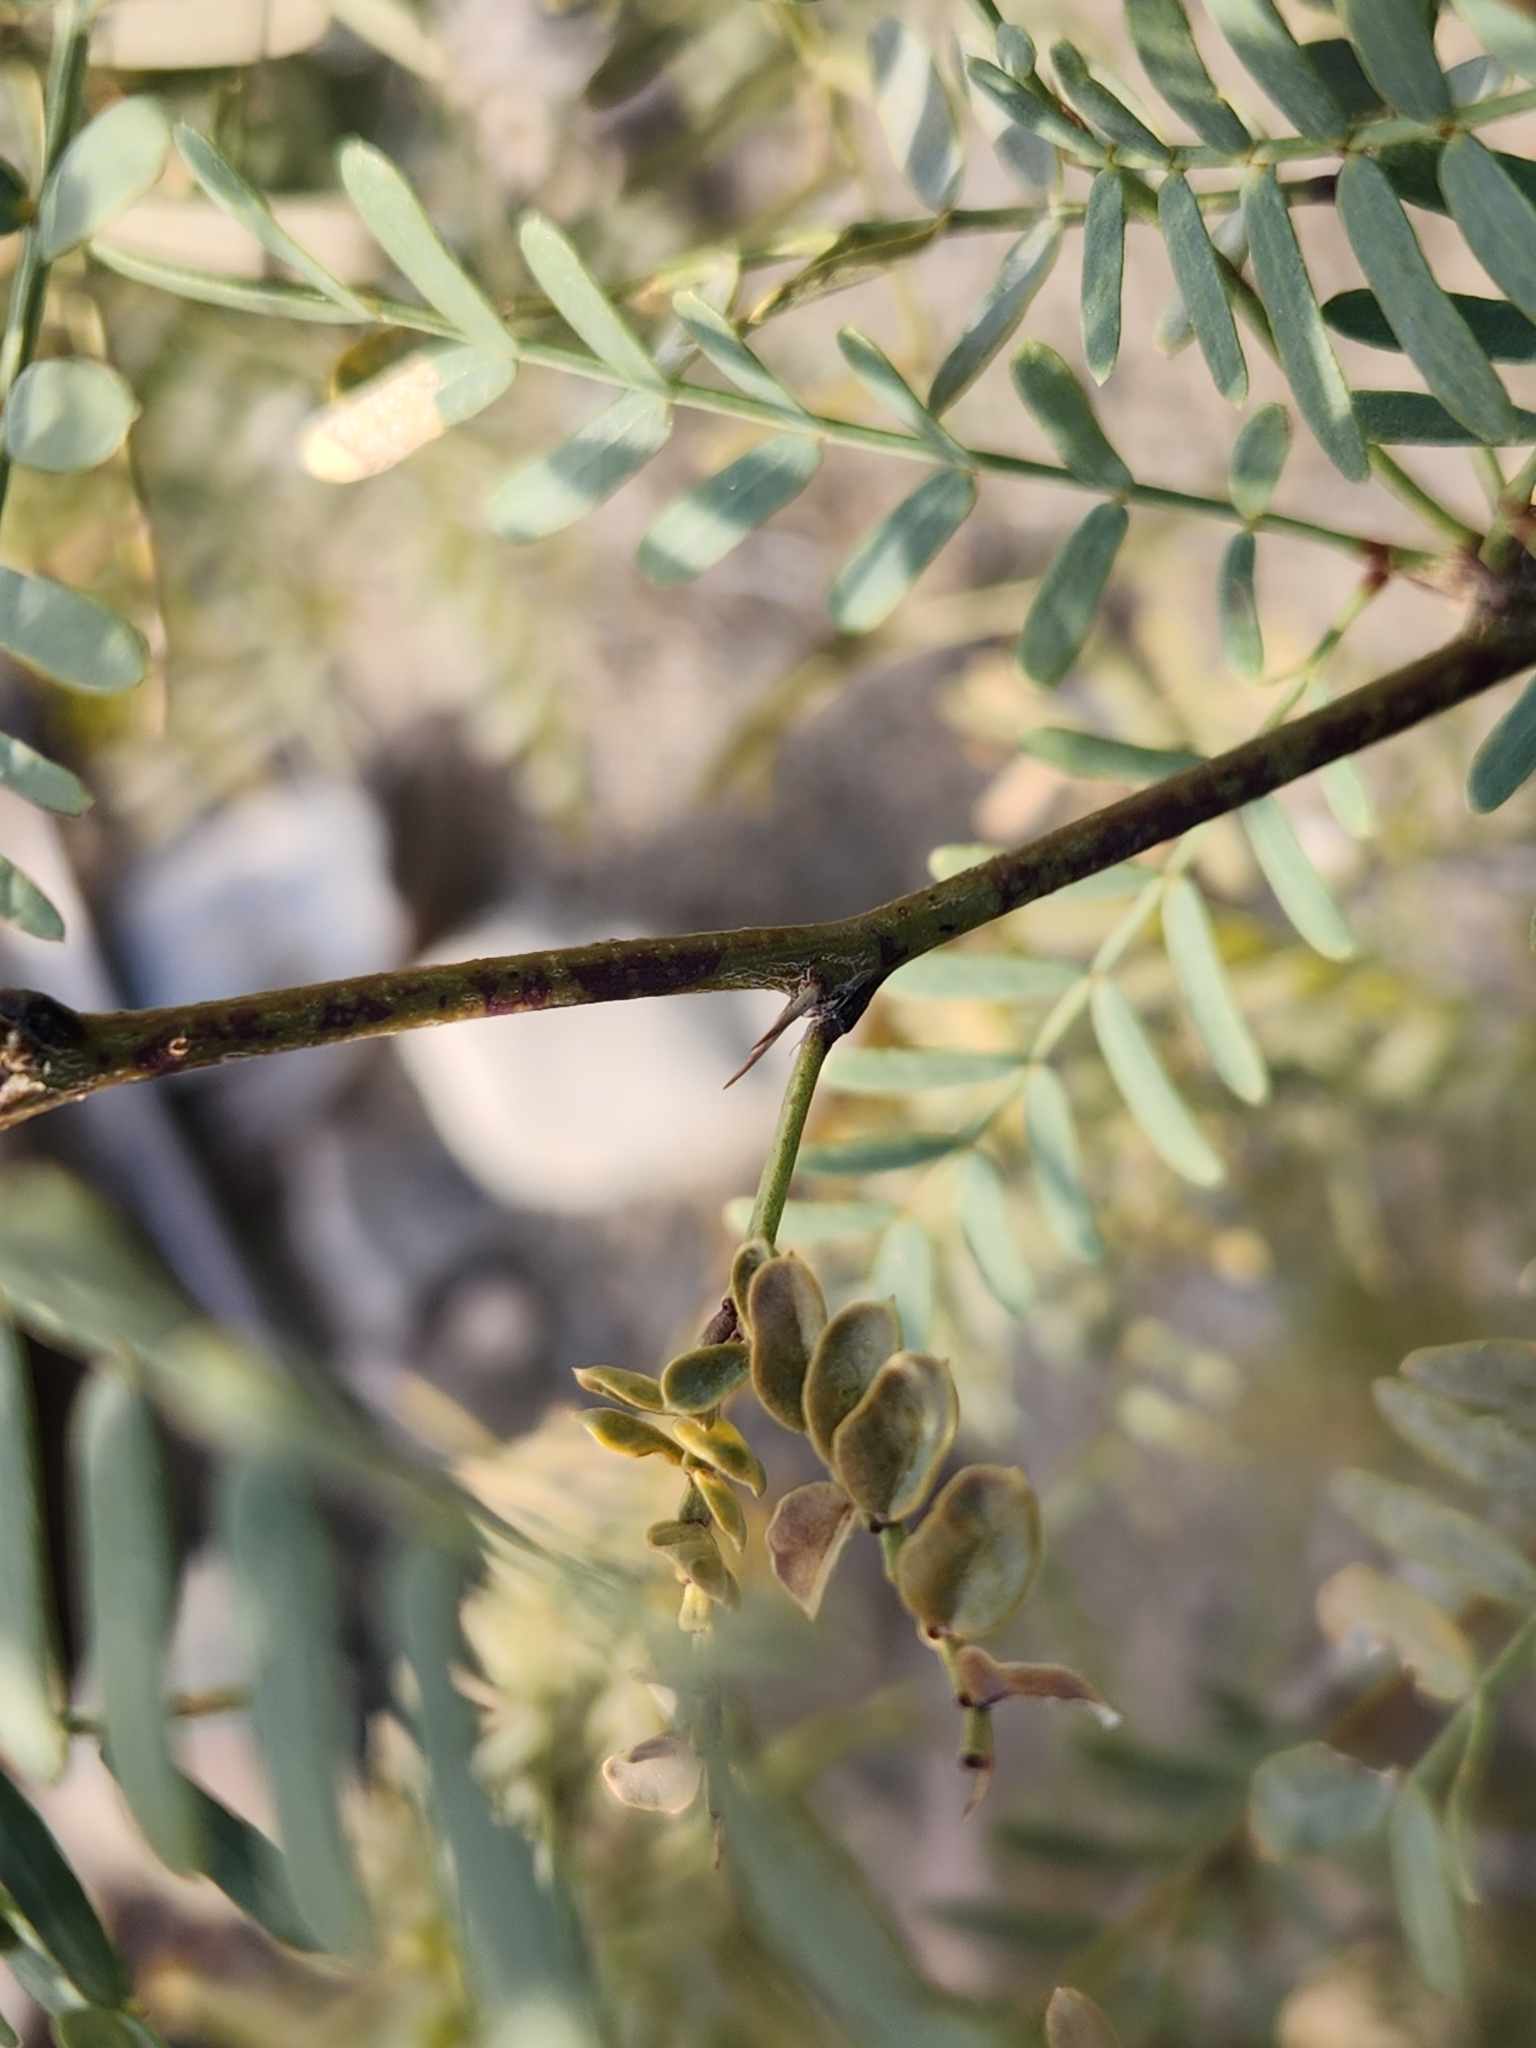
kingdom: Plantae
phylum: Tracheophyta
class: Magnoliopsida
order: Fabales
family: Fabaceae
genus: Prosopis
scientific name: Prosopis pubescens
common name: Screw-bean
